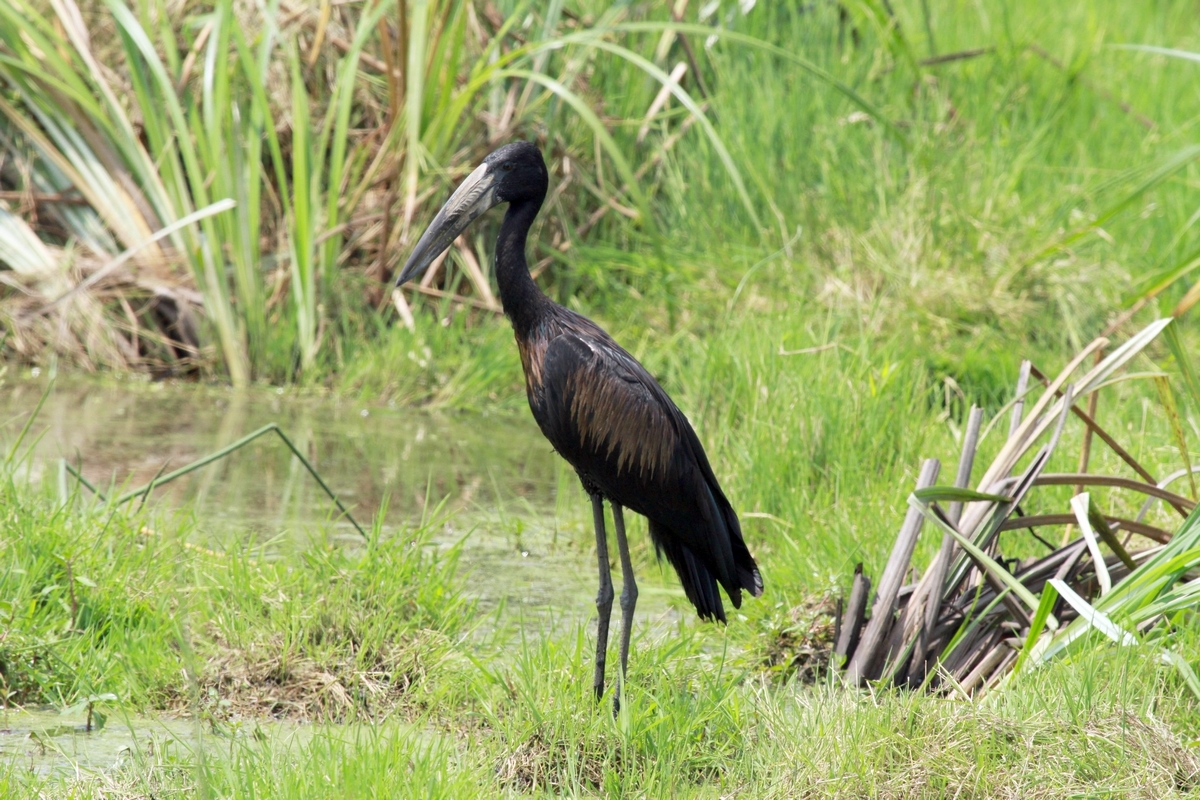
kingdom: Animalia
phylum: Chordata
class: Aves
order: Ciconiiformes
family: Ciconiidae
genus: Anastomus
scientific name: Anastomus lamelligerus
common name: African openbill
